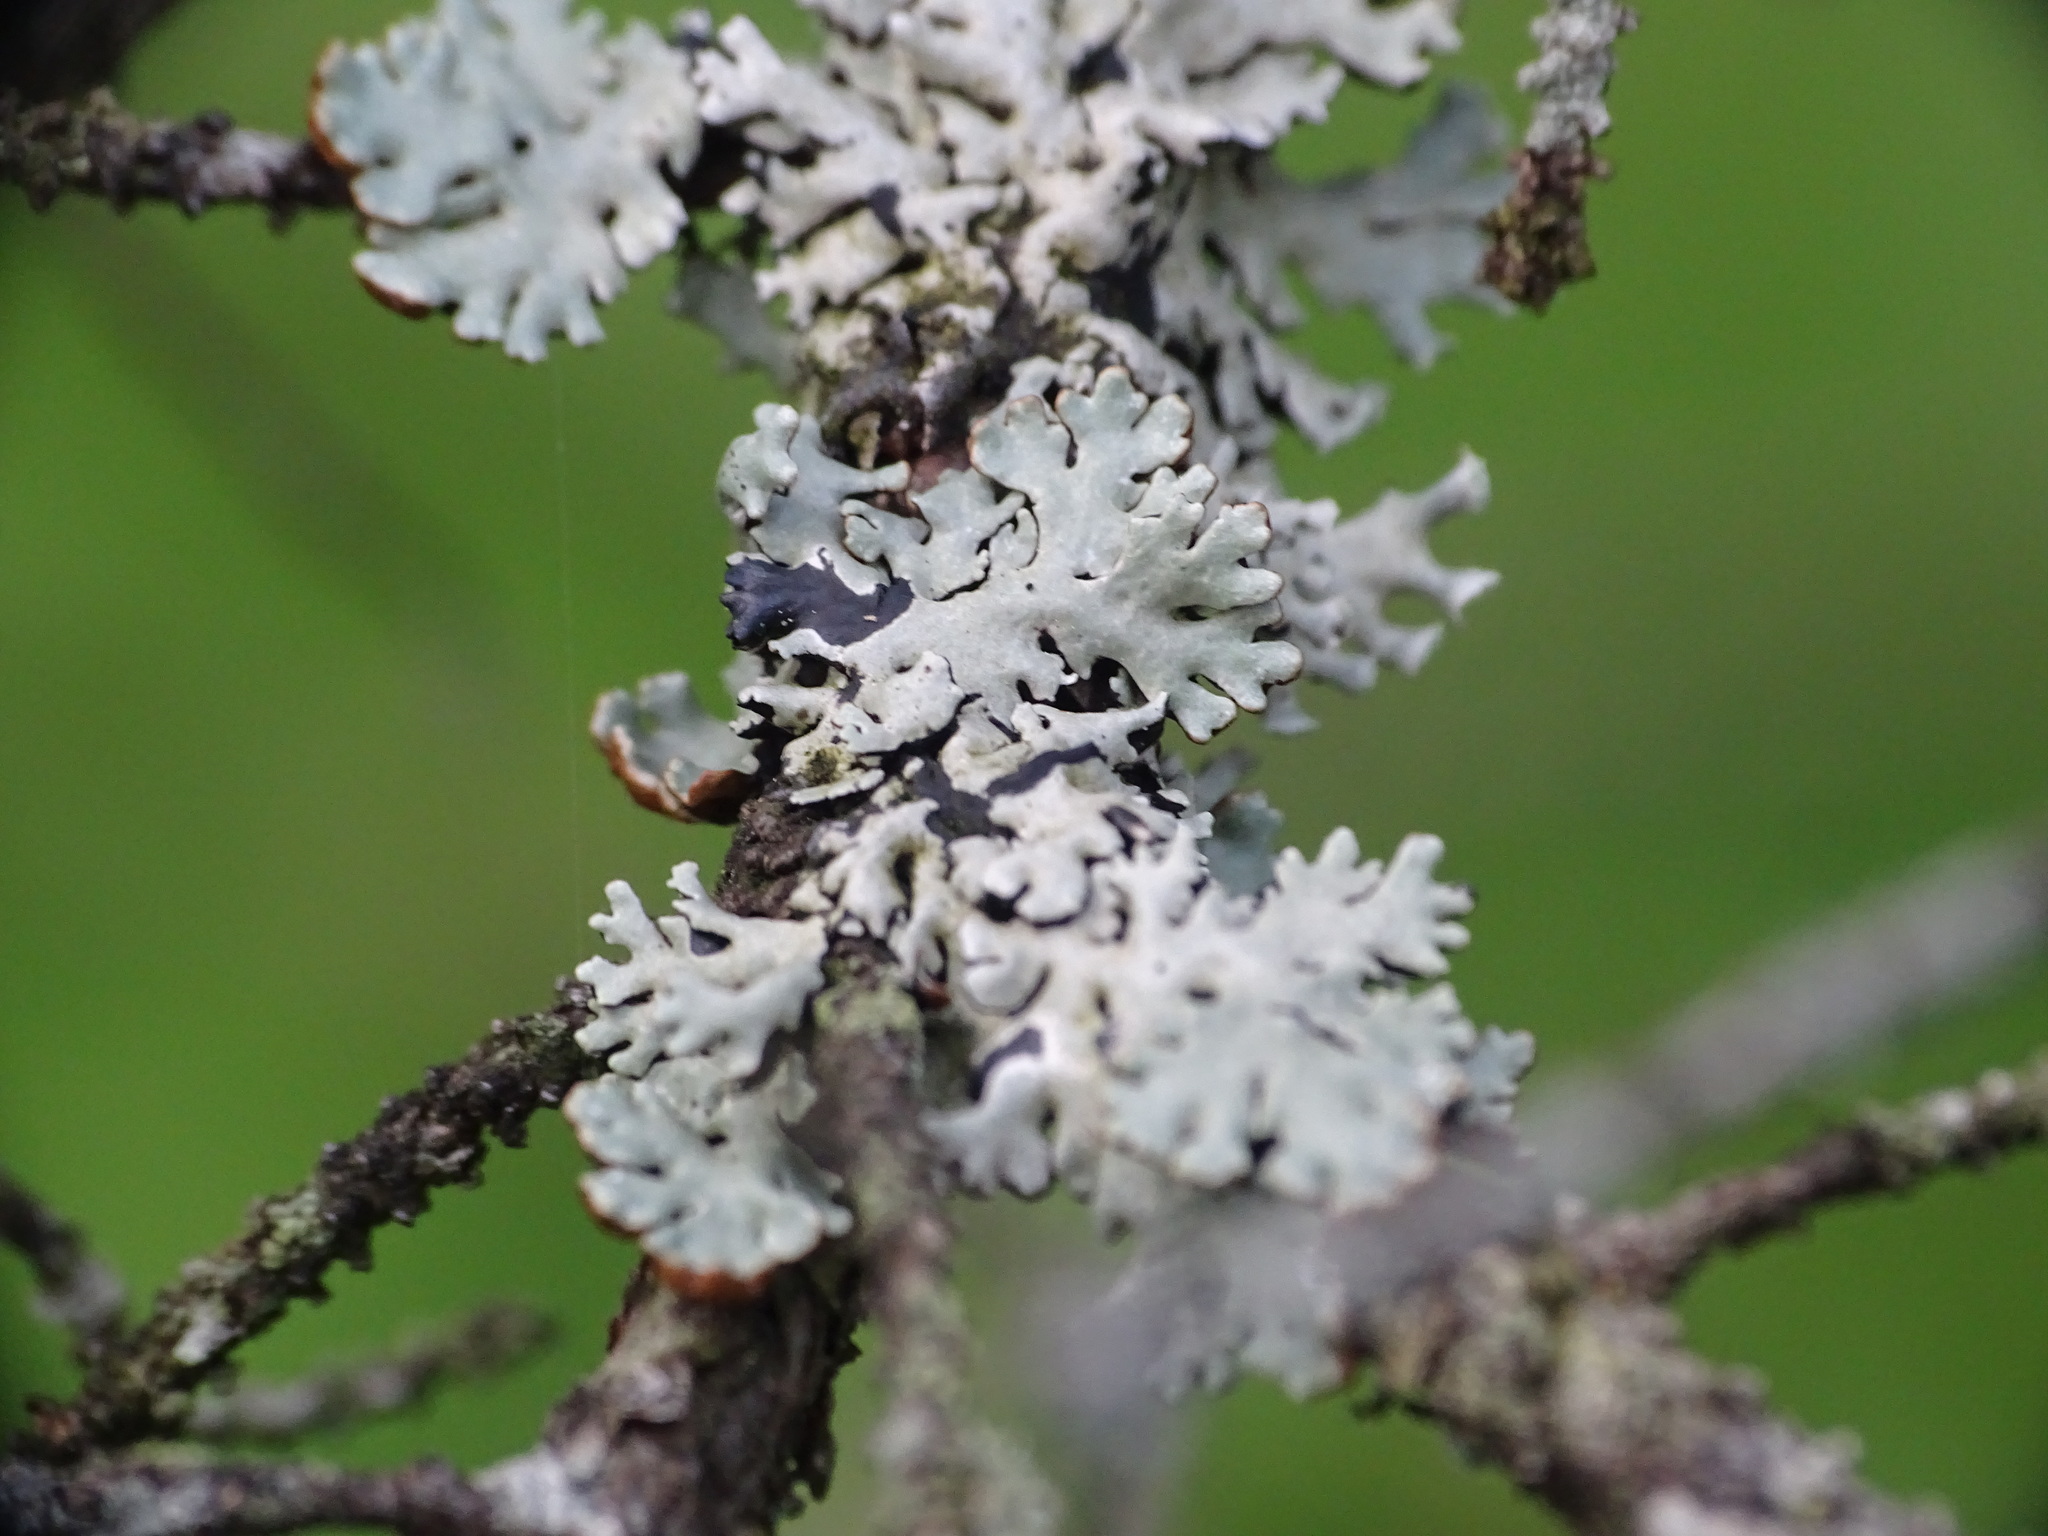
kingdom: Fungi
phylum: Ascomycota
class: Lecanoromycetes
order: Lecanorales
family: Parmeliaceae
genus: Hypogymnia
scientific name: Hypogymnia physodes
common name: Dark crottle
